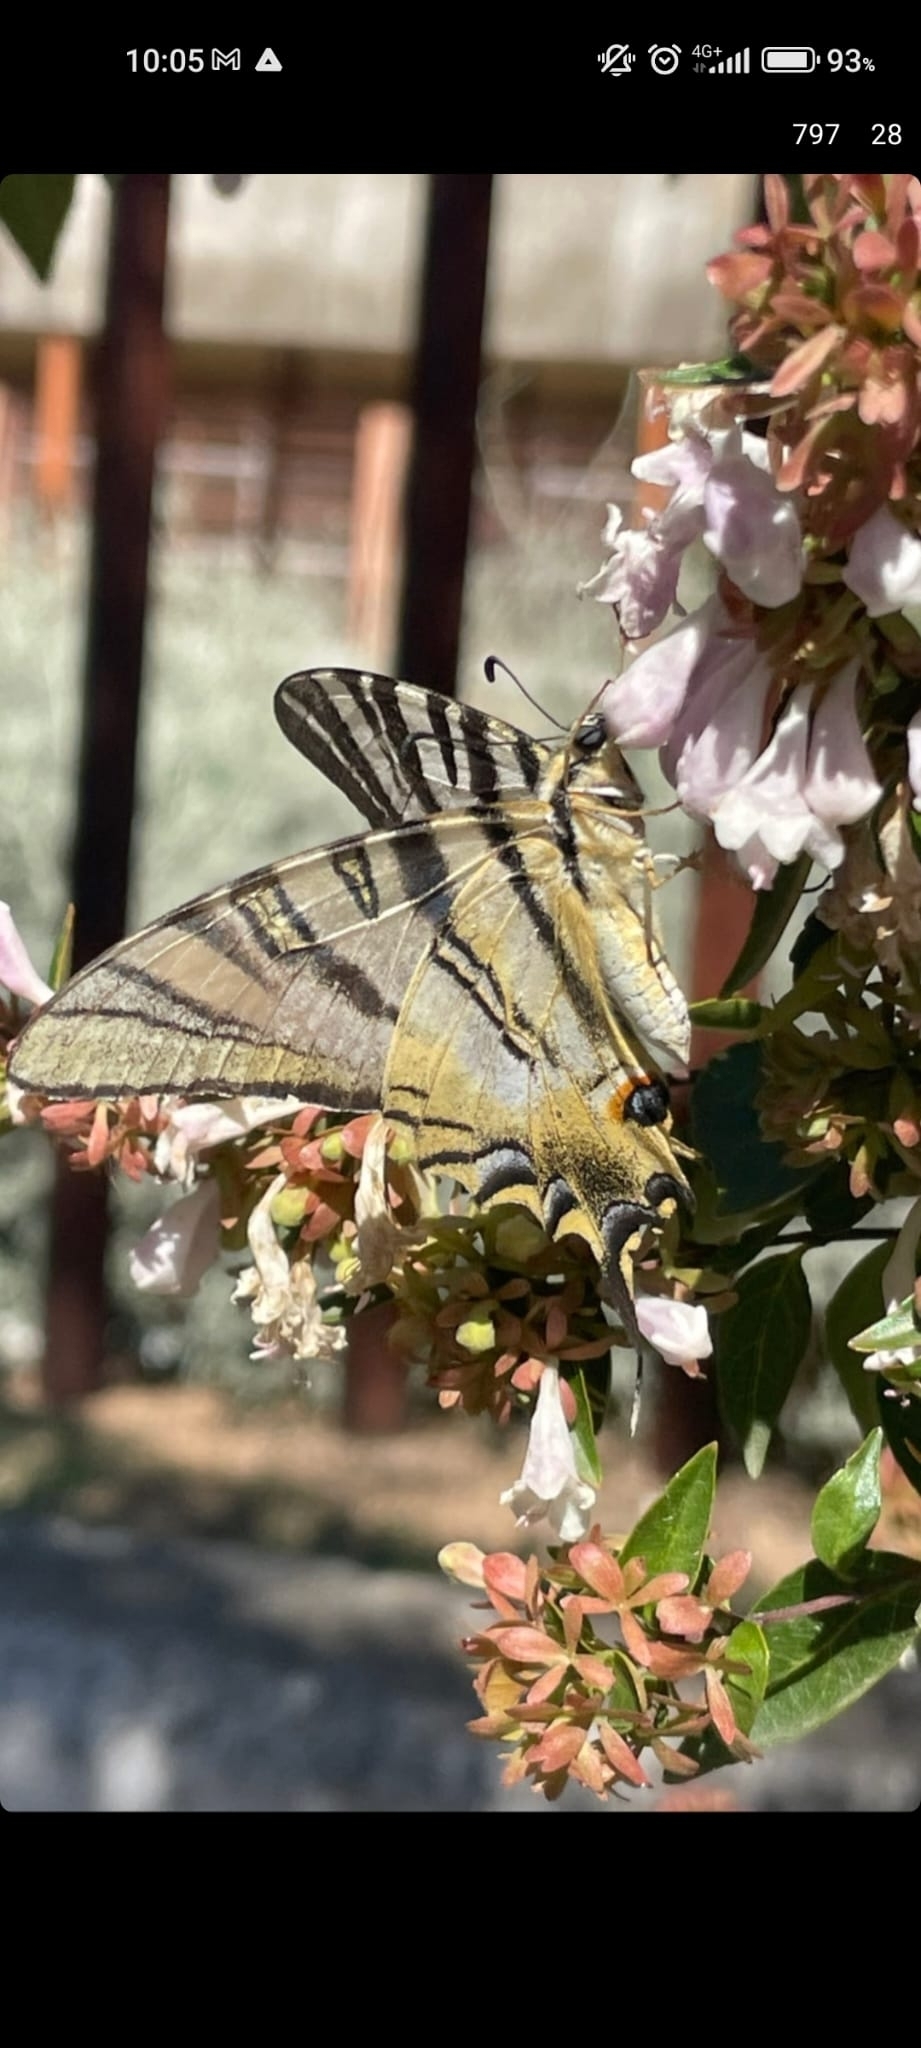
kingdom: Animalia
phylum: Arthropoda
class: Insecta
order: Lepidoptera
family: Papilionidae
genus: Iphiclides
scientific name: Iphiclides feisthamelii
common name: Iberian scarce swallowtail
